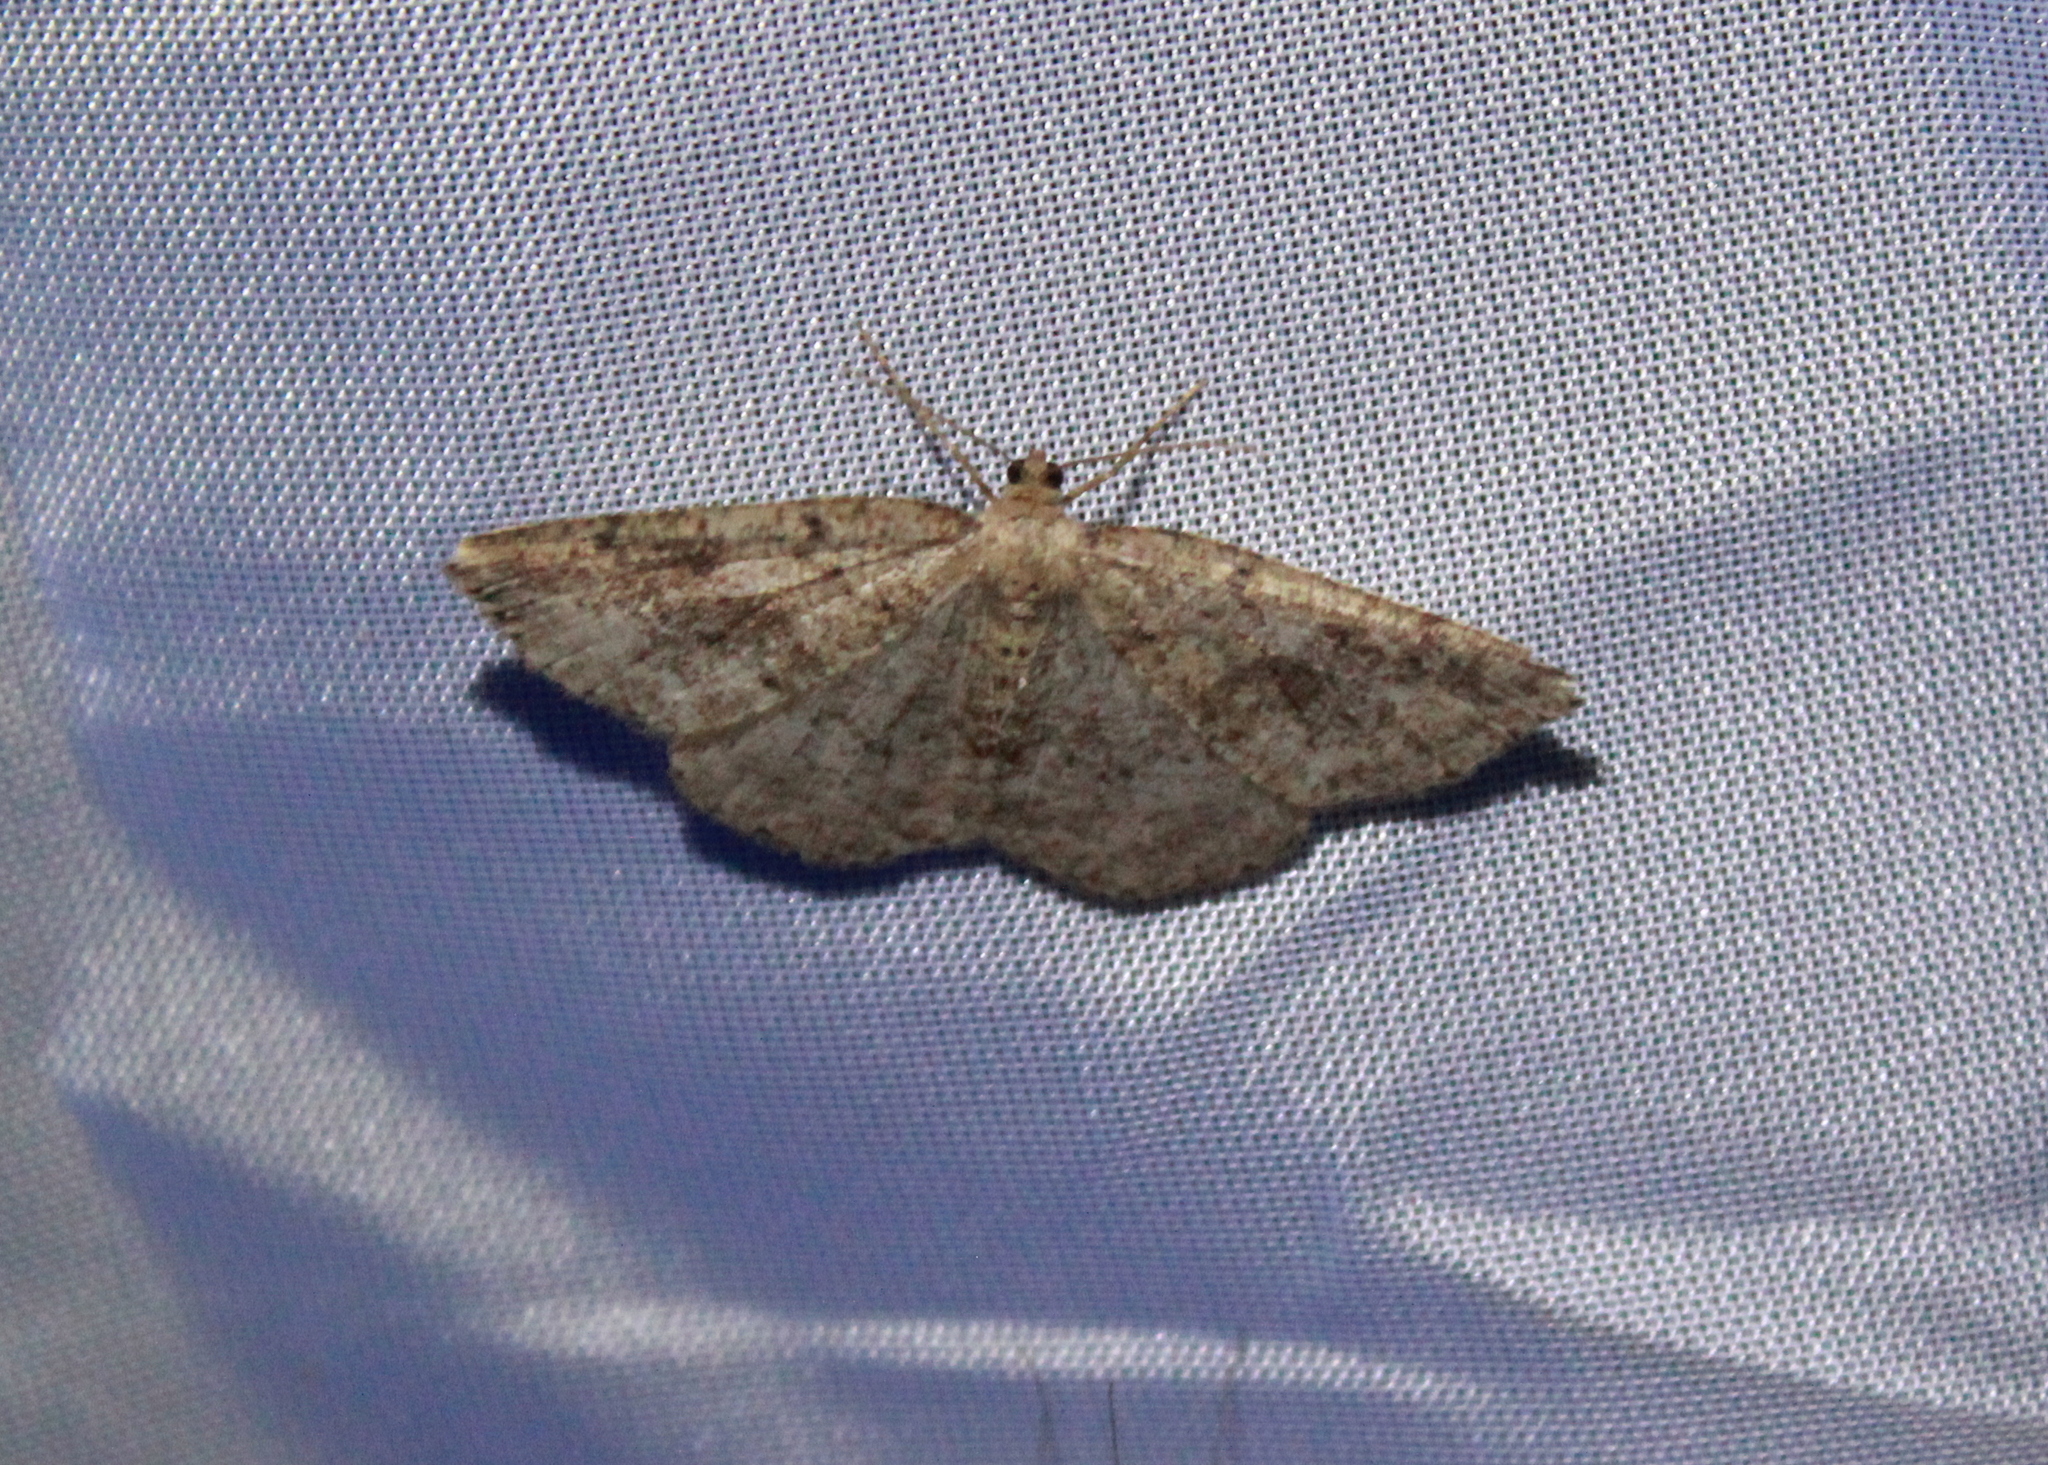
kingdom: Animalia
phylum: Arthropoda
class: Insecta
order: Lepidoptera
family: Geometridae
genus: Homochlodes
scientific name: Homochlodes fritillaria
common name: Pale homochlodes
